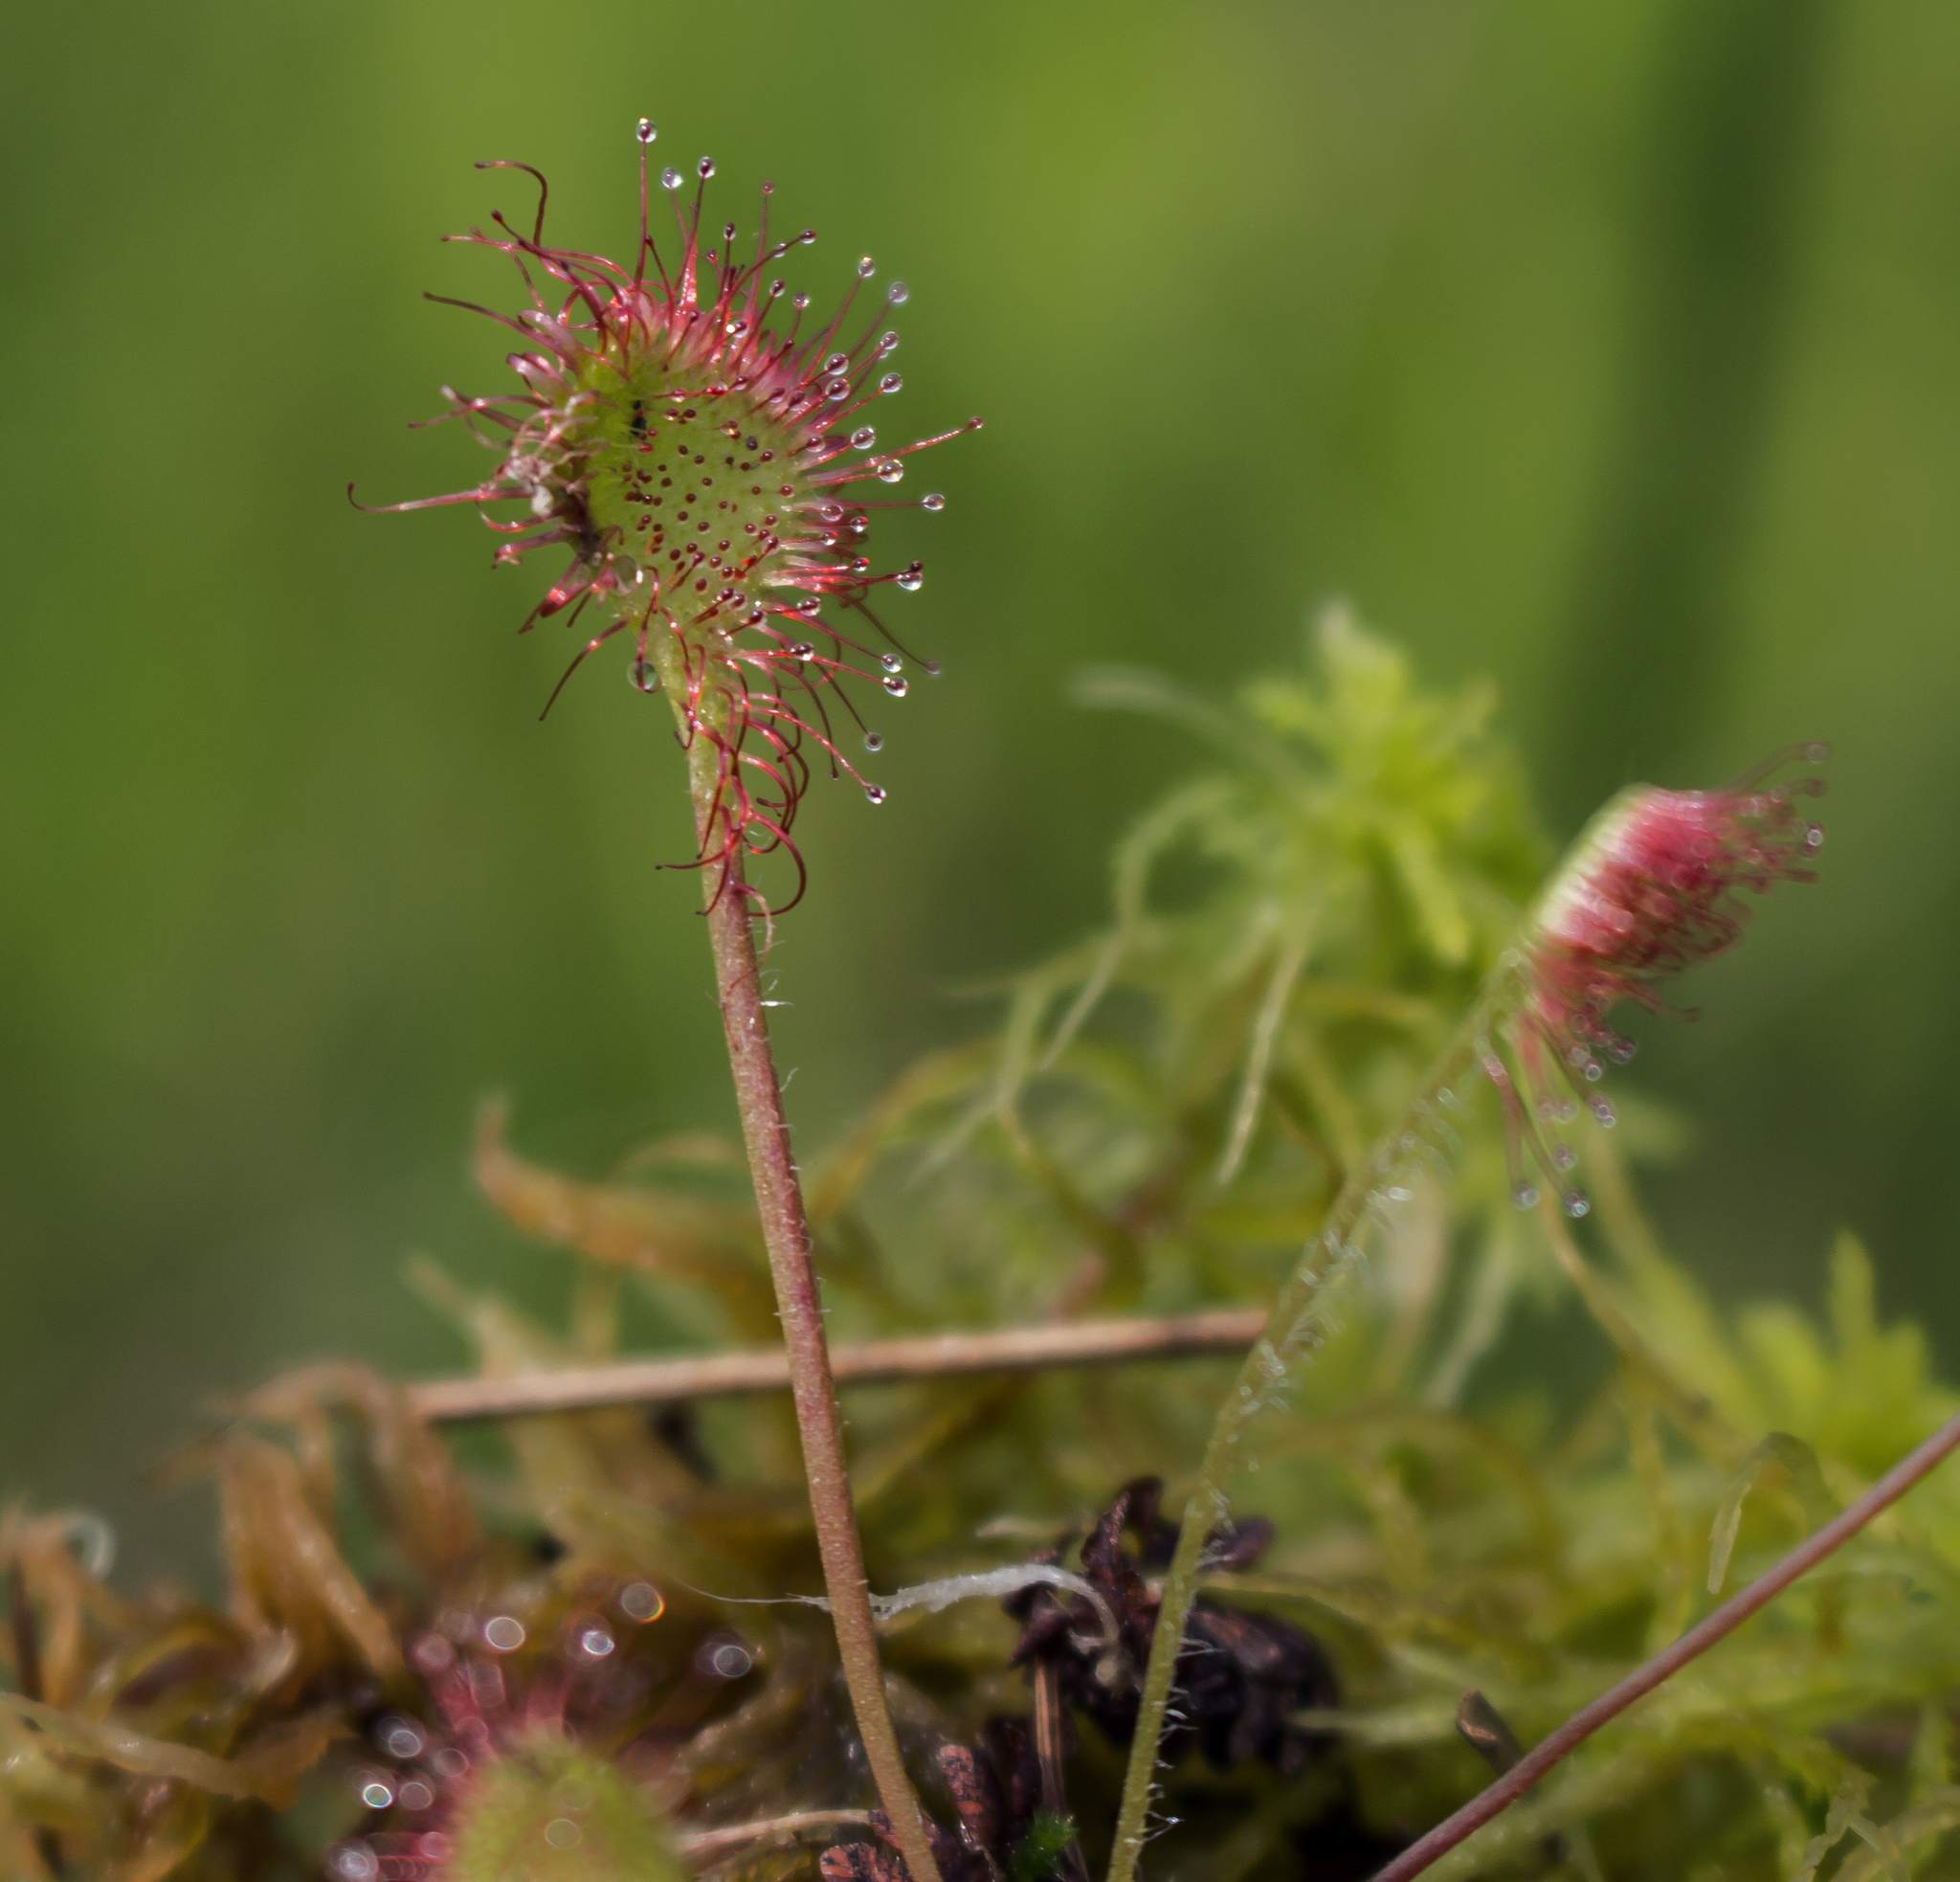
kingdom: Plantae
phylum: Tracheophyta
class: Magnoliopsida
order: Caryophyllales
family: Droseraceae
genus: Drosera
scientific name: Drosera rotundifolia
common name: Round-leaved sundew
